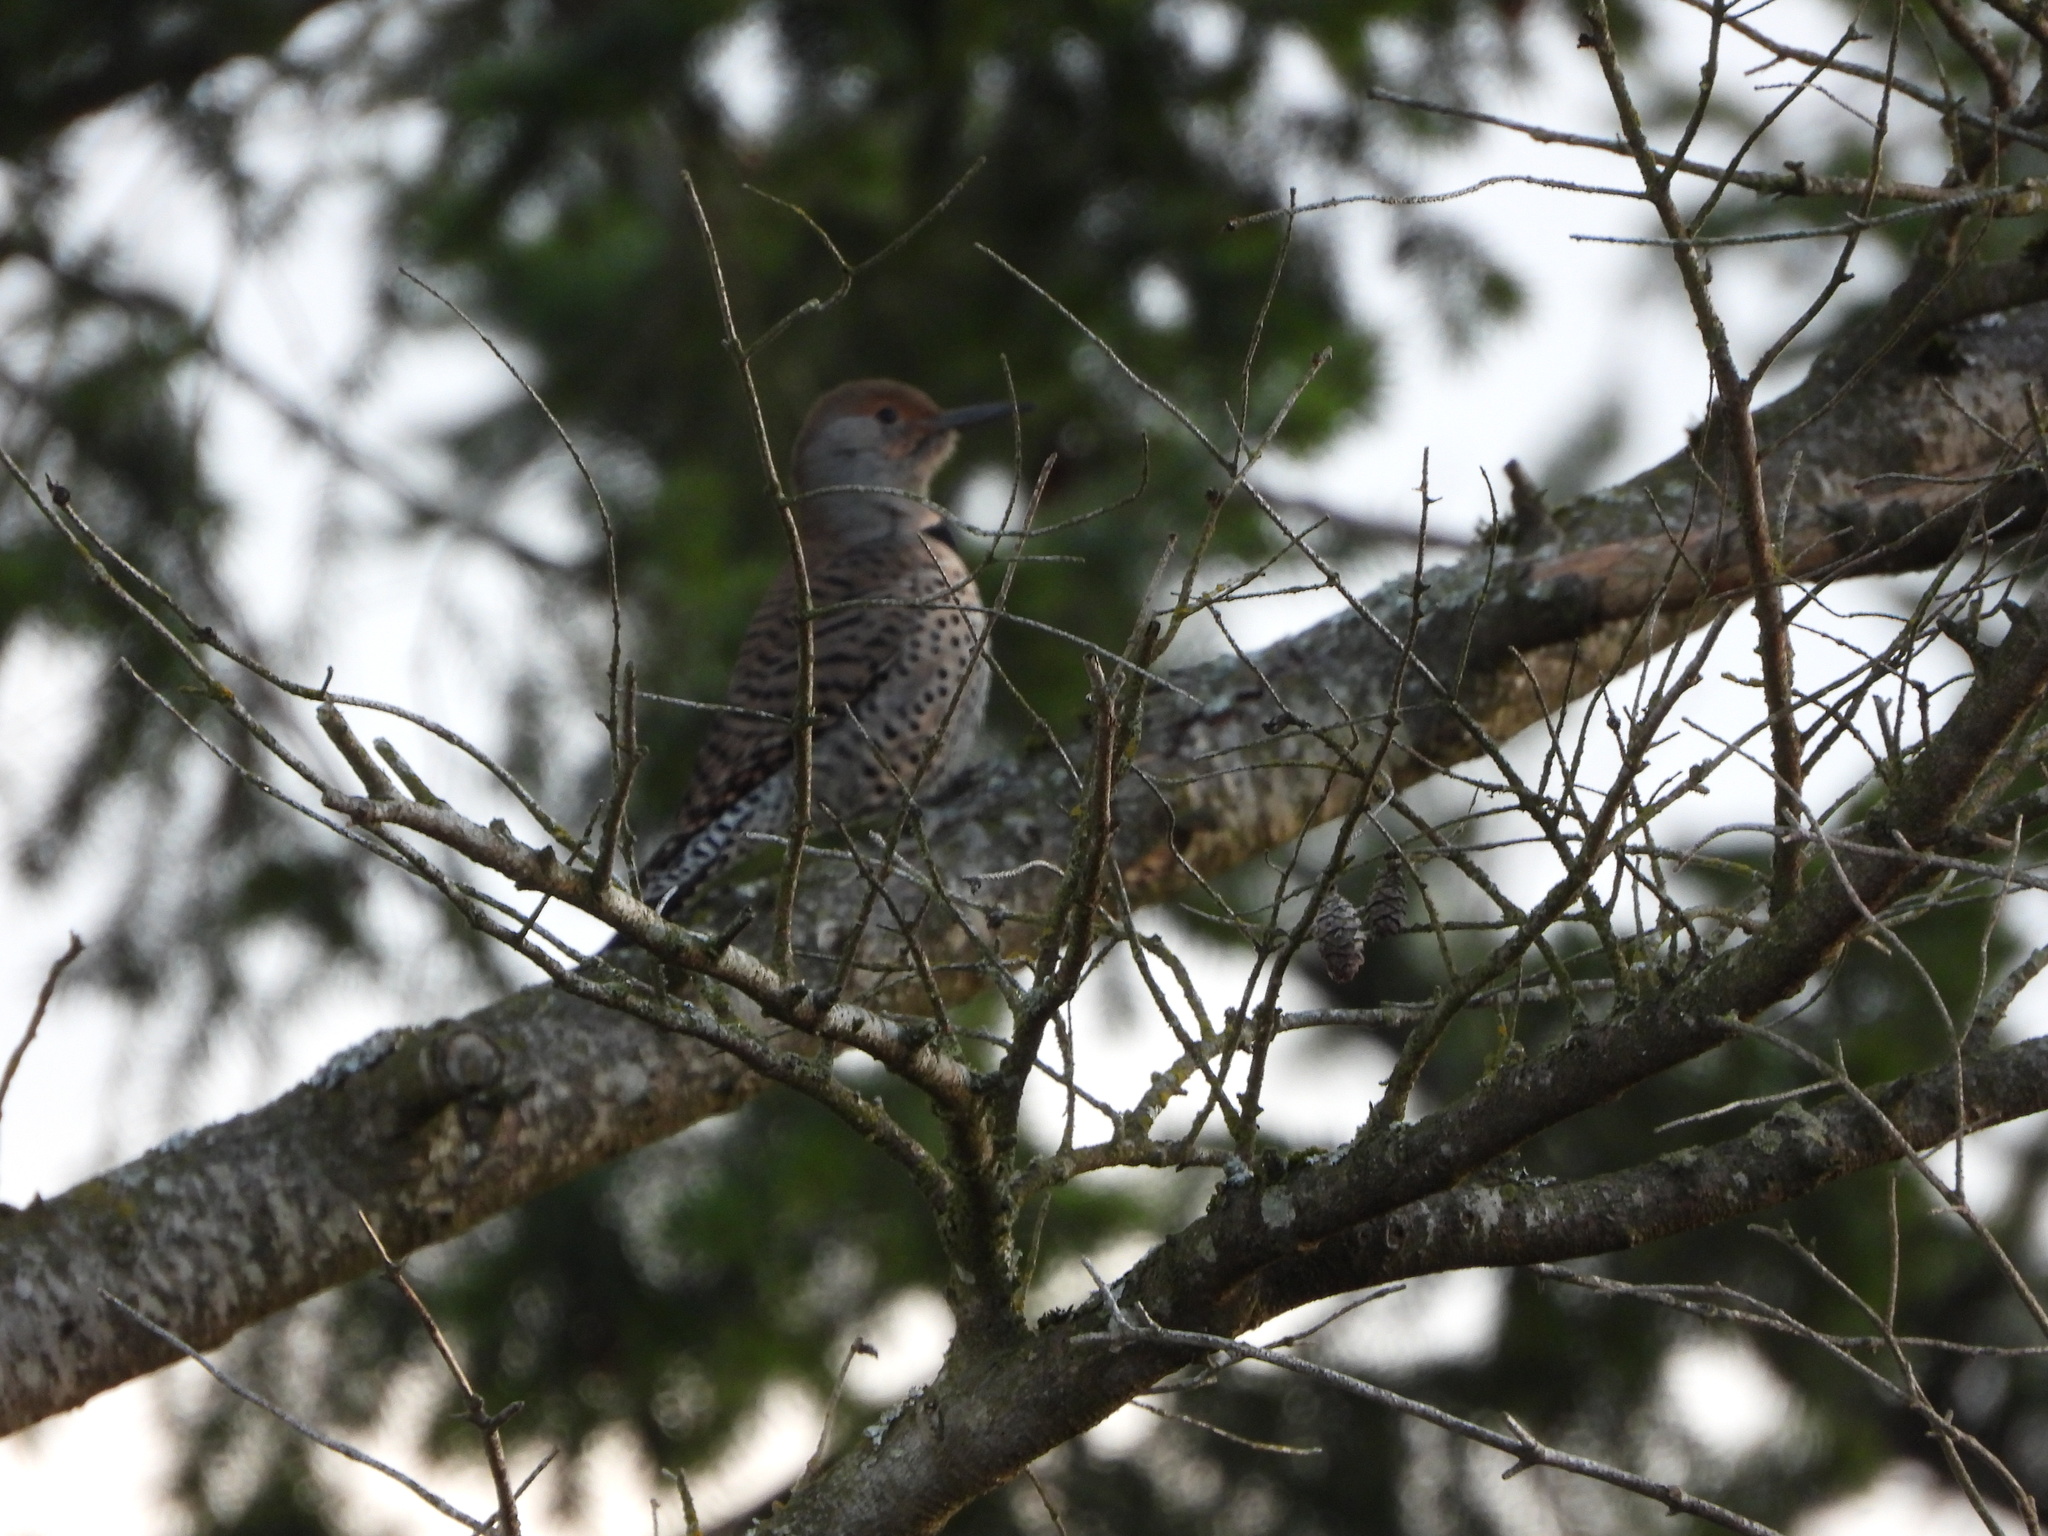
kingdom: Animalia
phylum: Chordata
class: Aves
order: Piciformes
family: Picidae
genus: Colaptes
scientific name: Colaptes auratus
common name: Northern flicker
